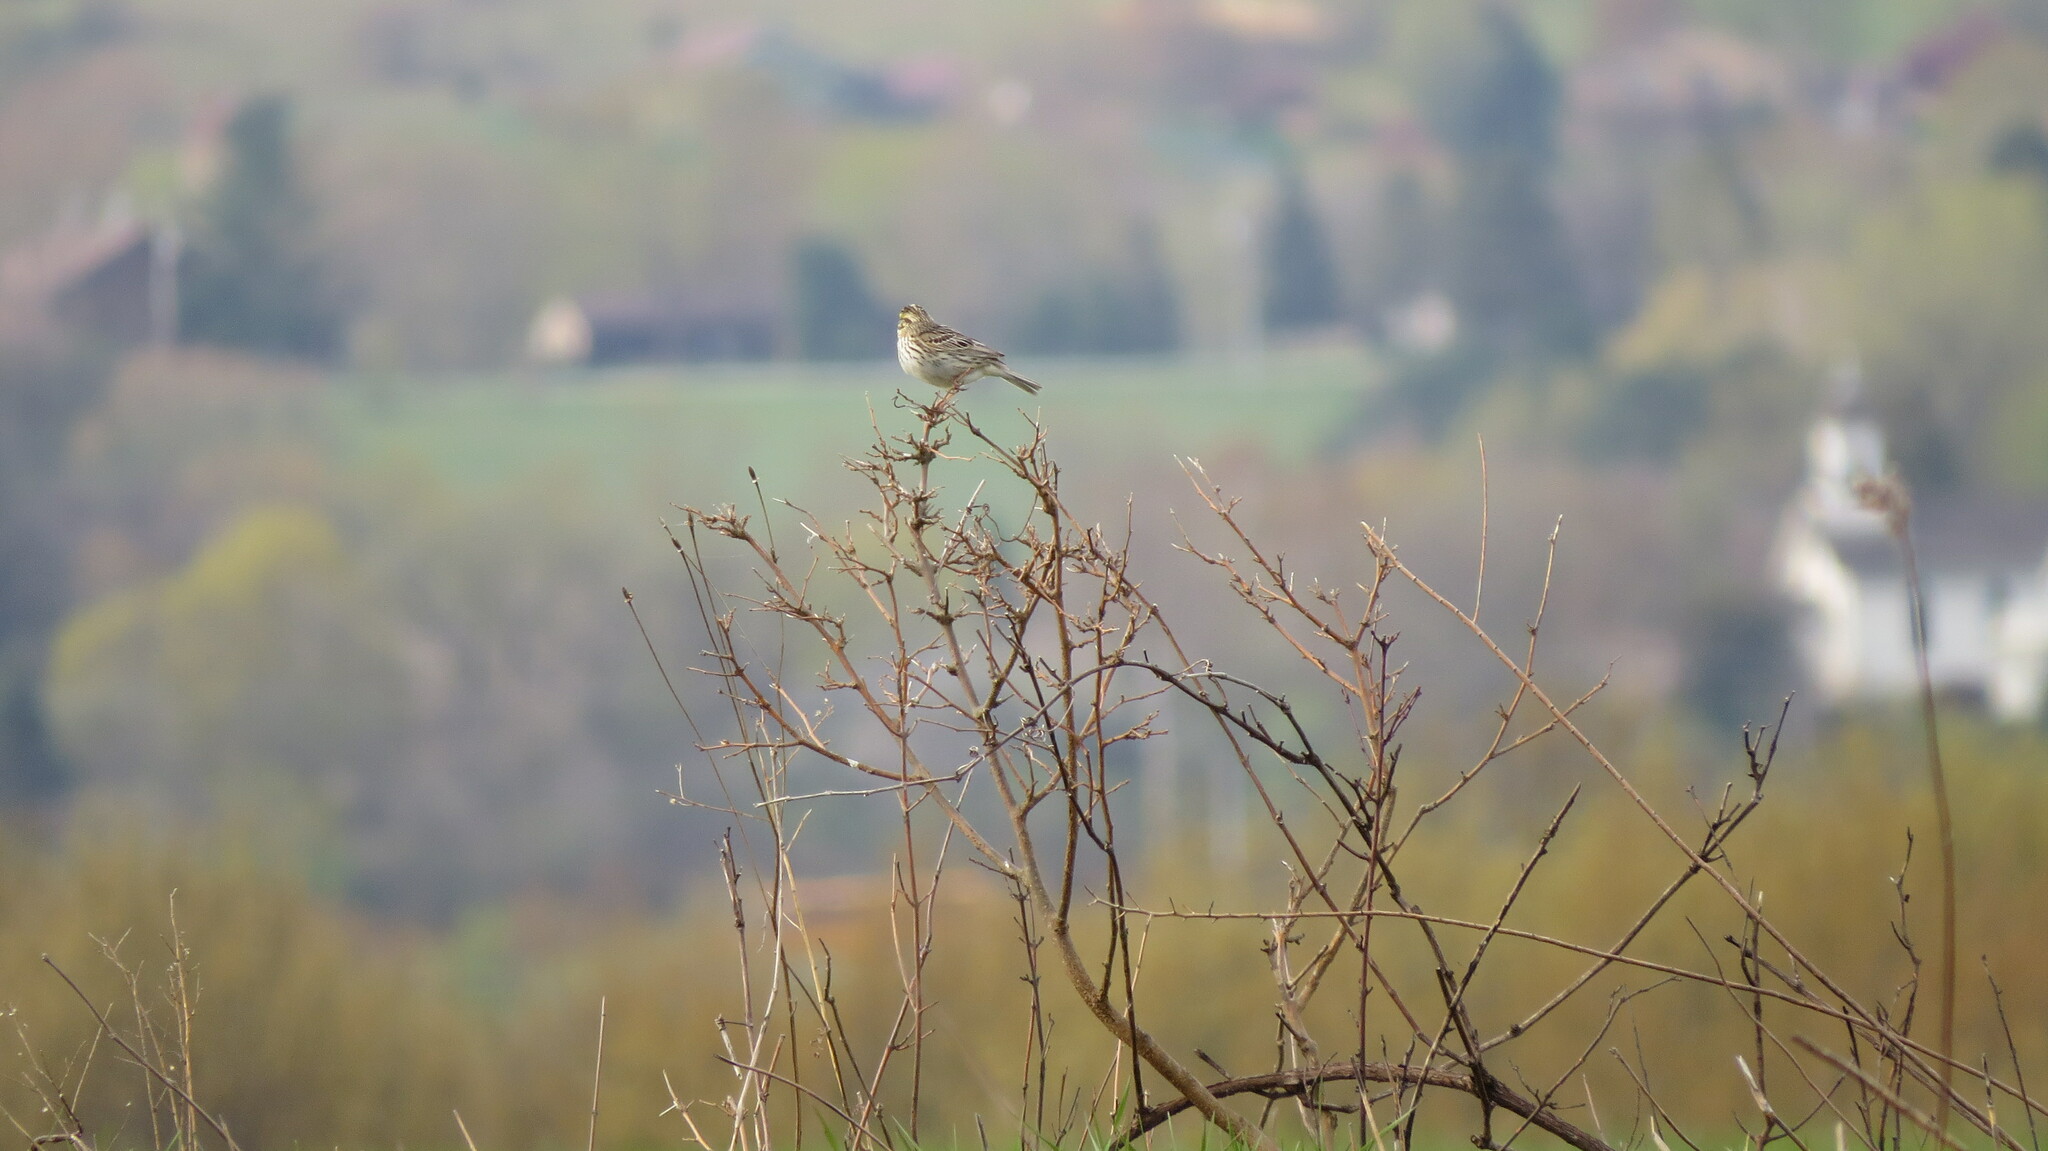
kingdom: Animalia
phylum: Chordata
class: Aves
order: Passeriformes
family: Passerellidae
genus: Passerculus
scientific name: Passerculus sandwichensis
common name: Savannah sparrow
